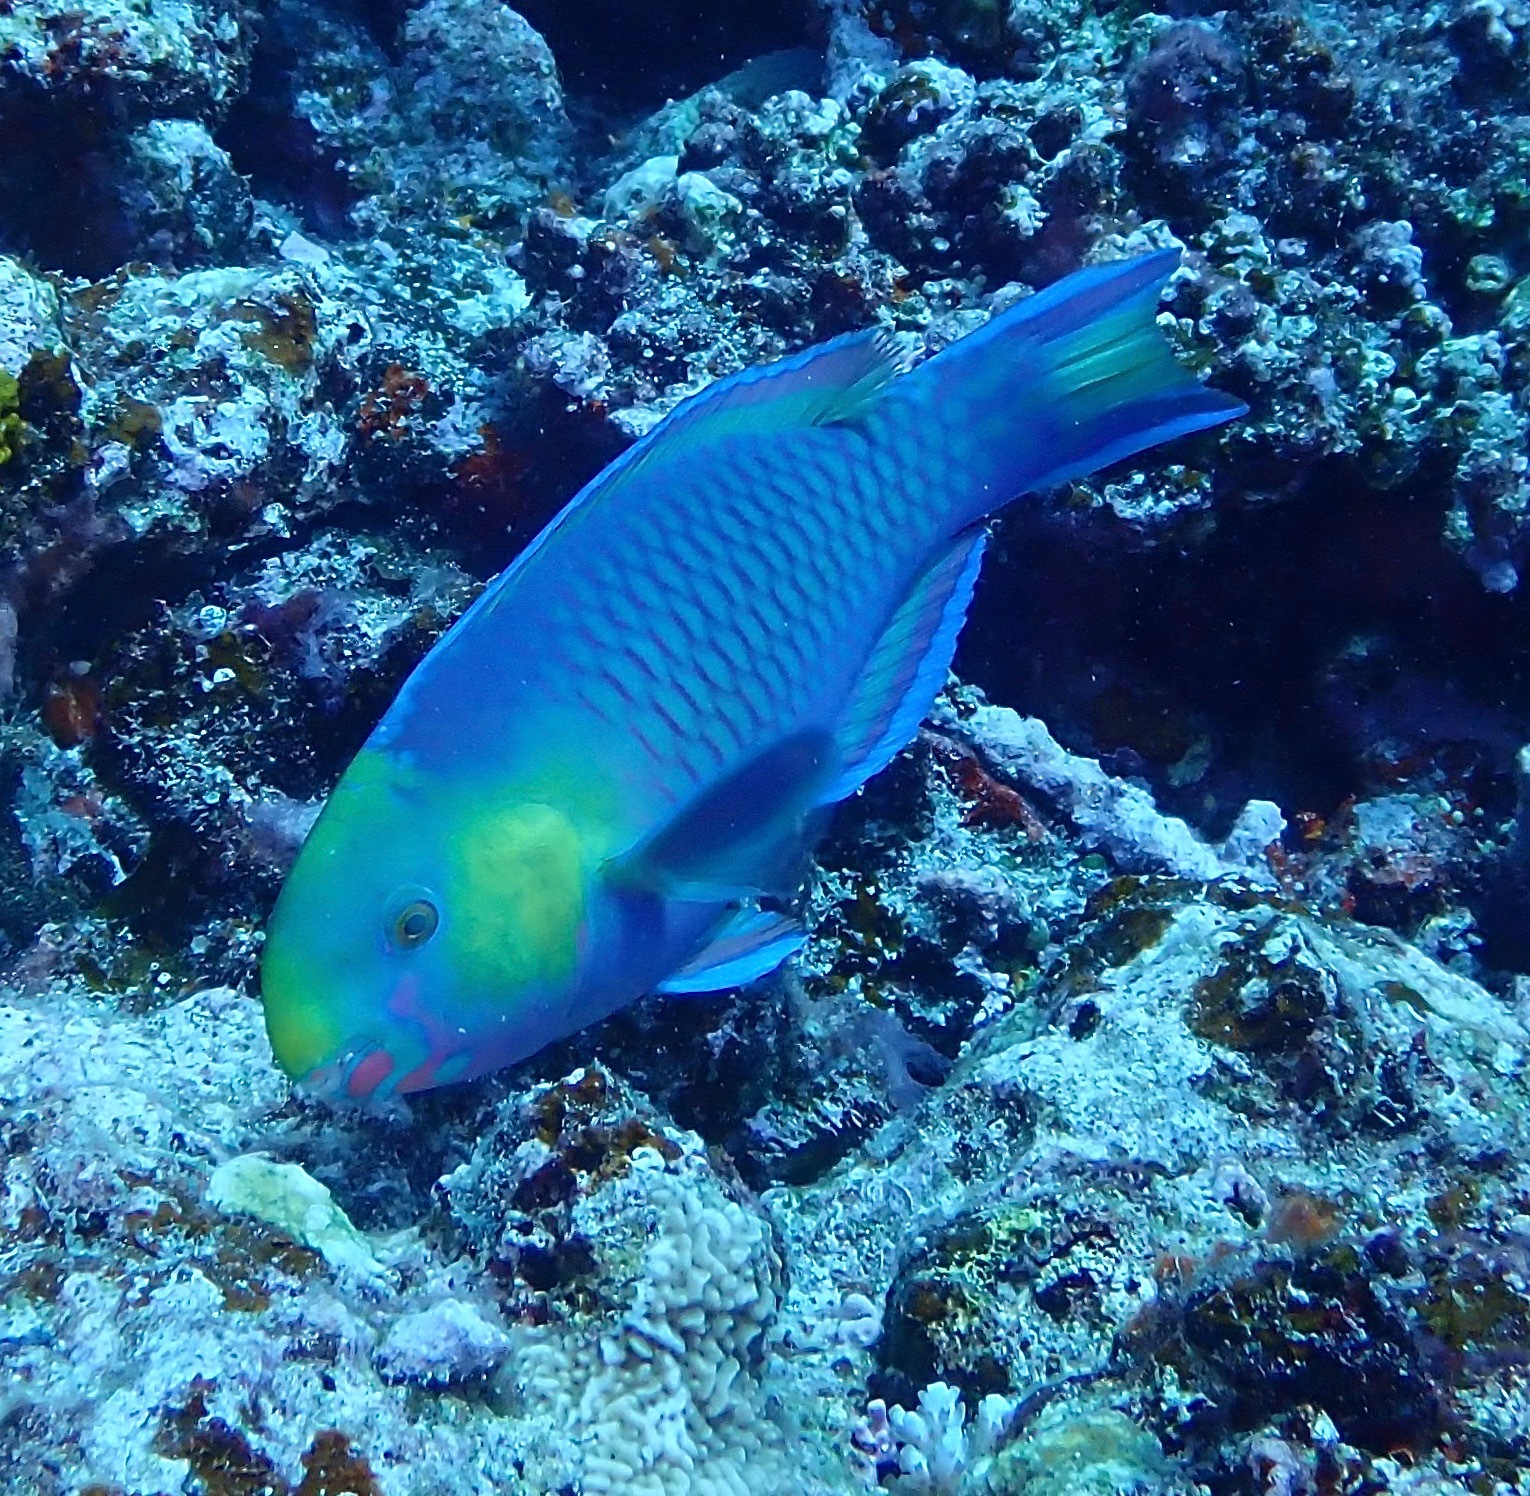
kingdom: Animalia
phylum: Chordata
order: Perciformes
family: Scaridae
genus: Scarus
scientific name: Scarus spinus
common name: Greensnout parrotfish
